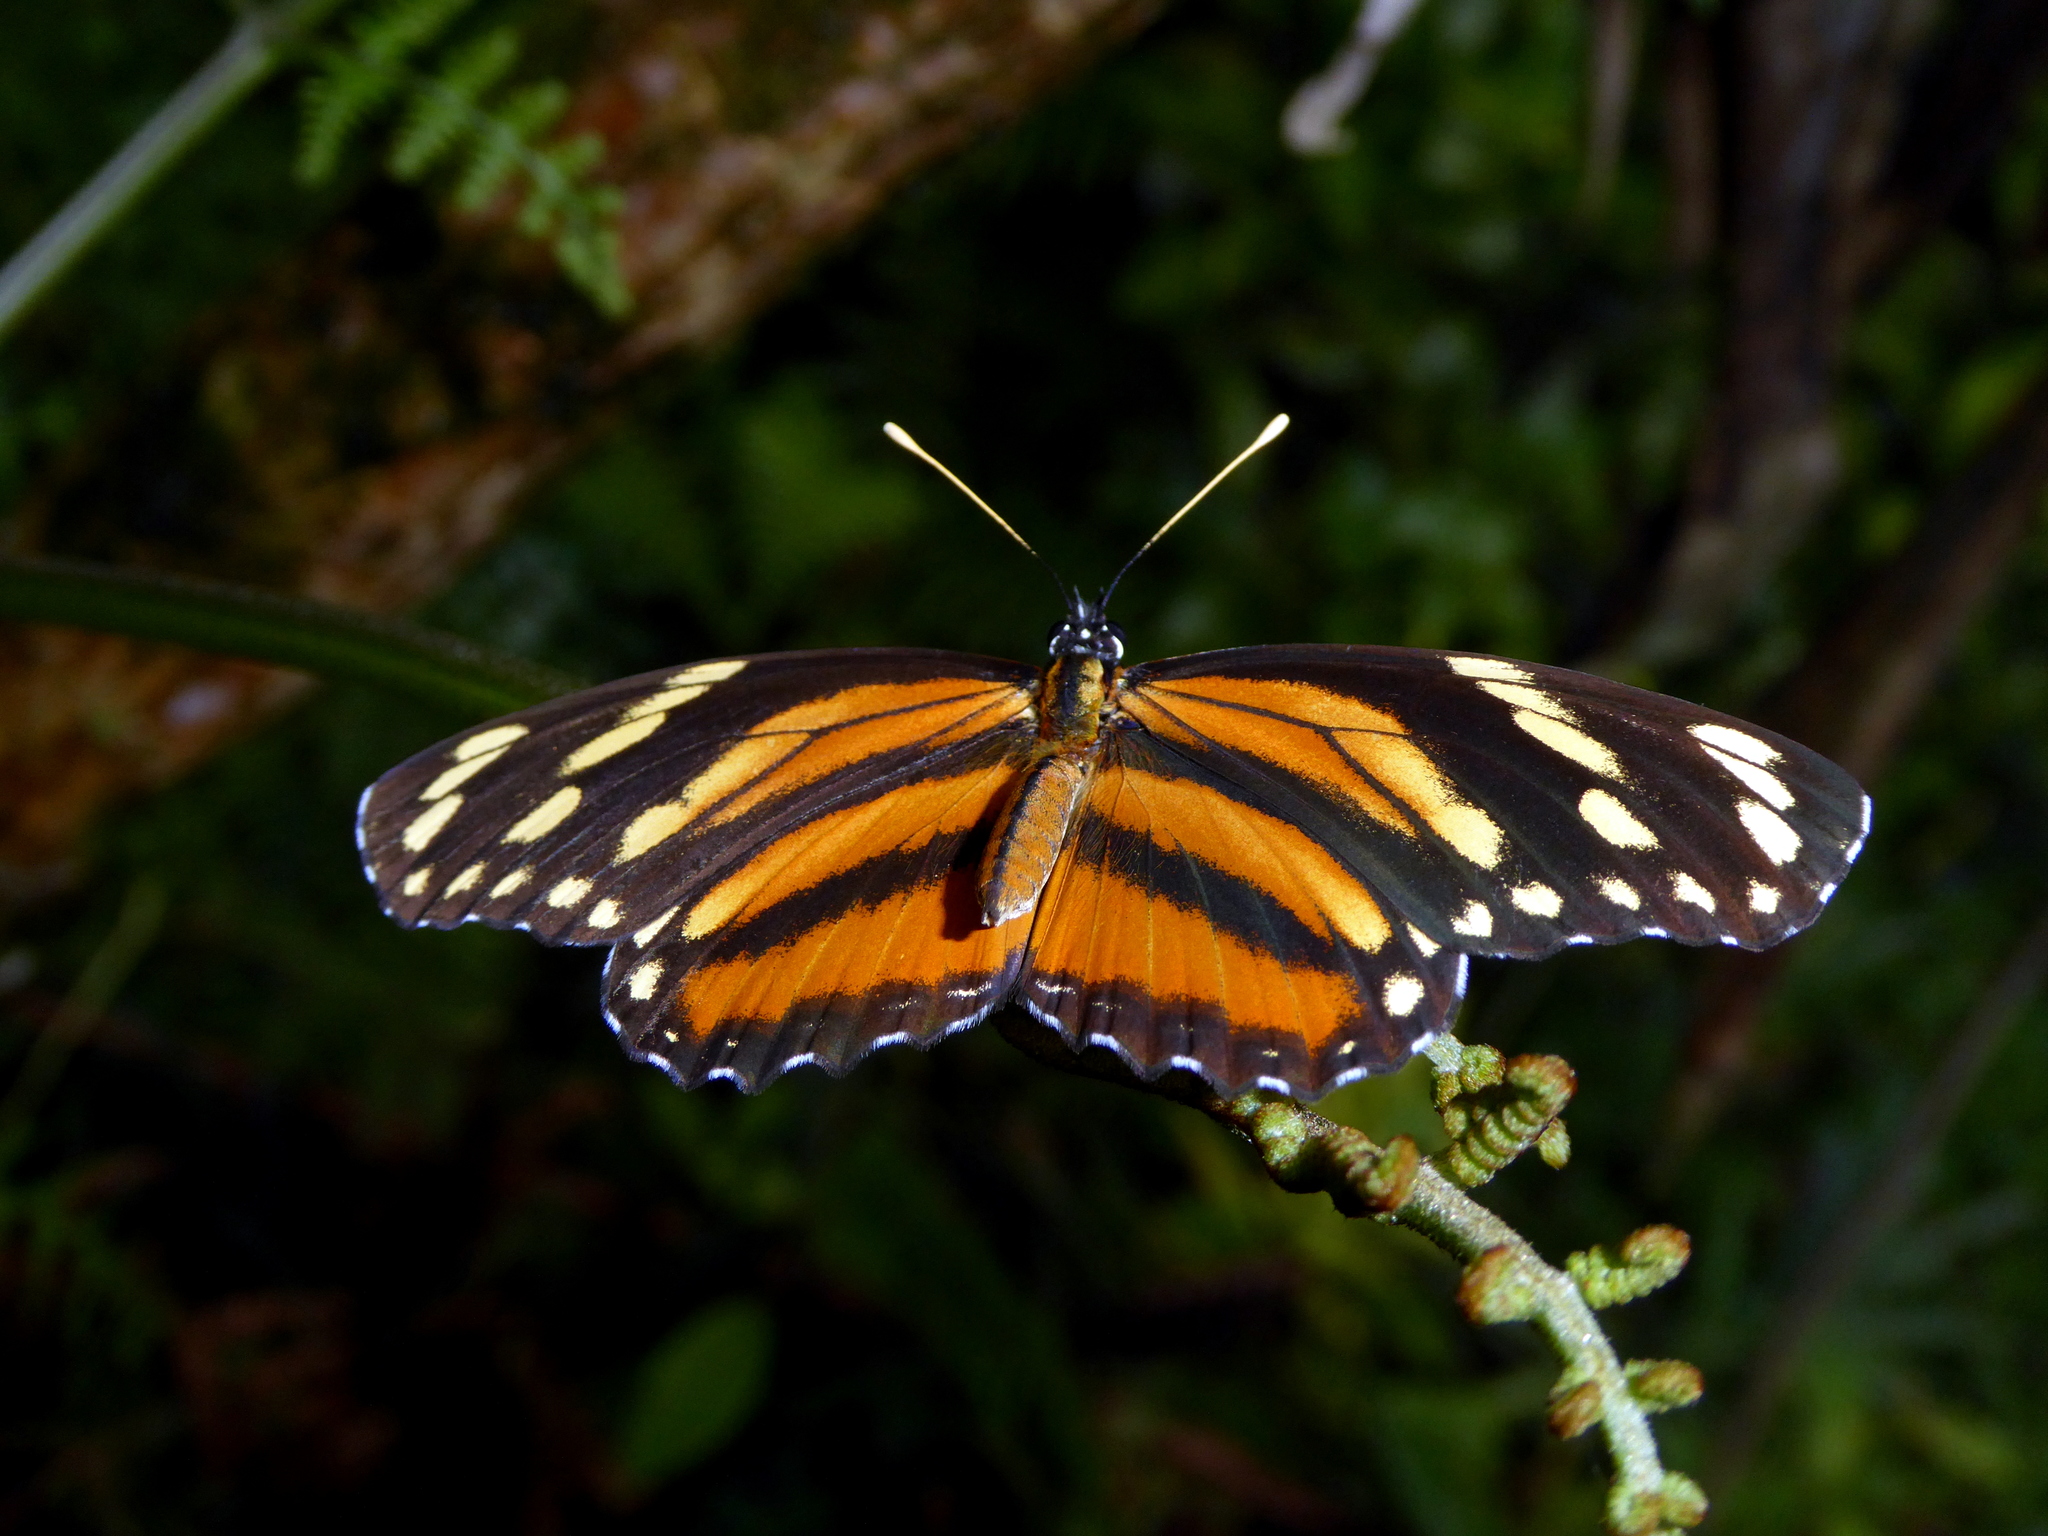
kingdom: Animalia
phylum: Arthropoda
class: Insecta
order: Lepidoptera
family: Nymphalidae
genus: Eresia
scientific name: Eresia phillyra
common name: Longwing crescent
